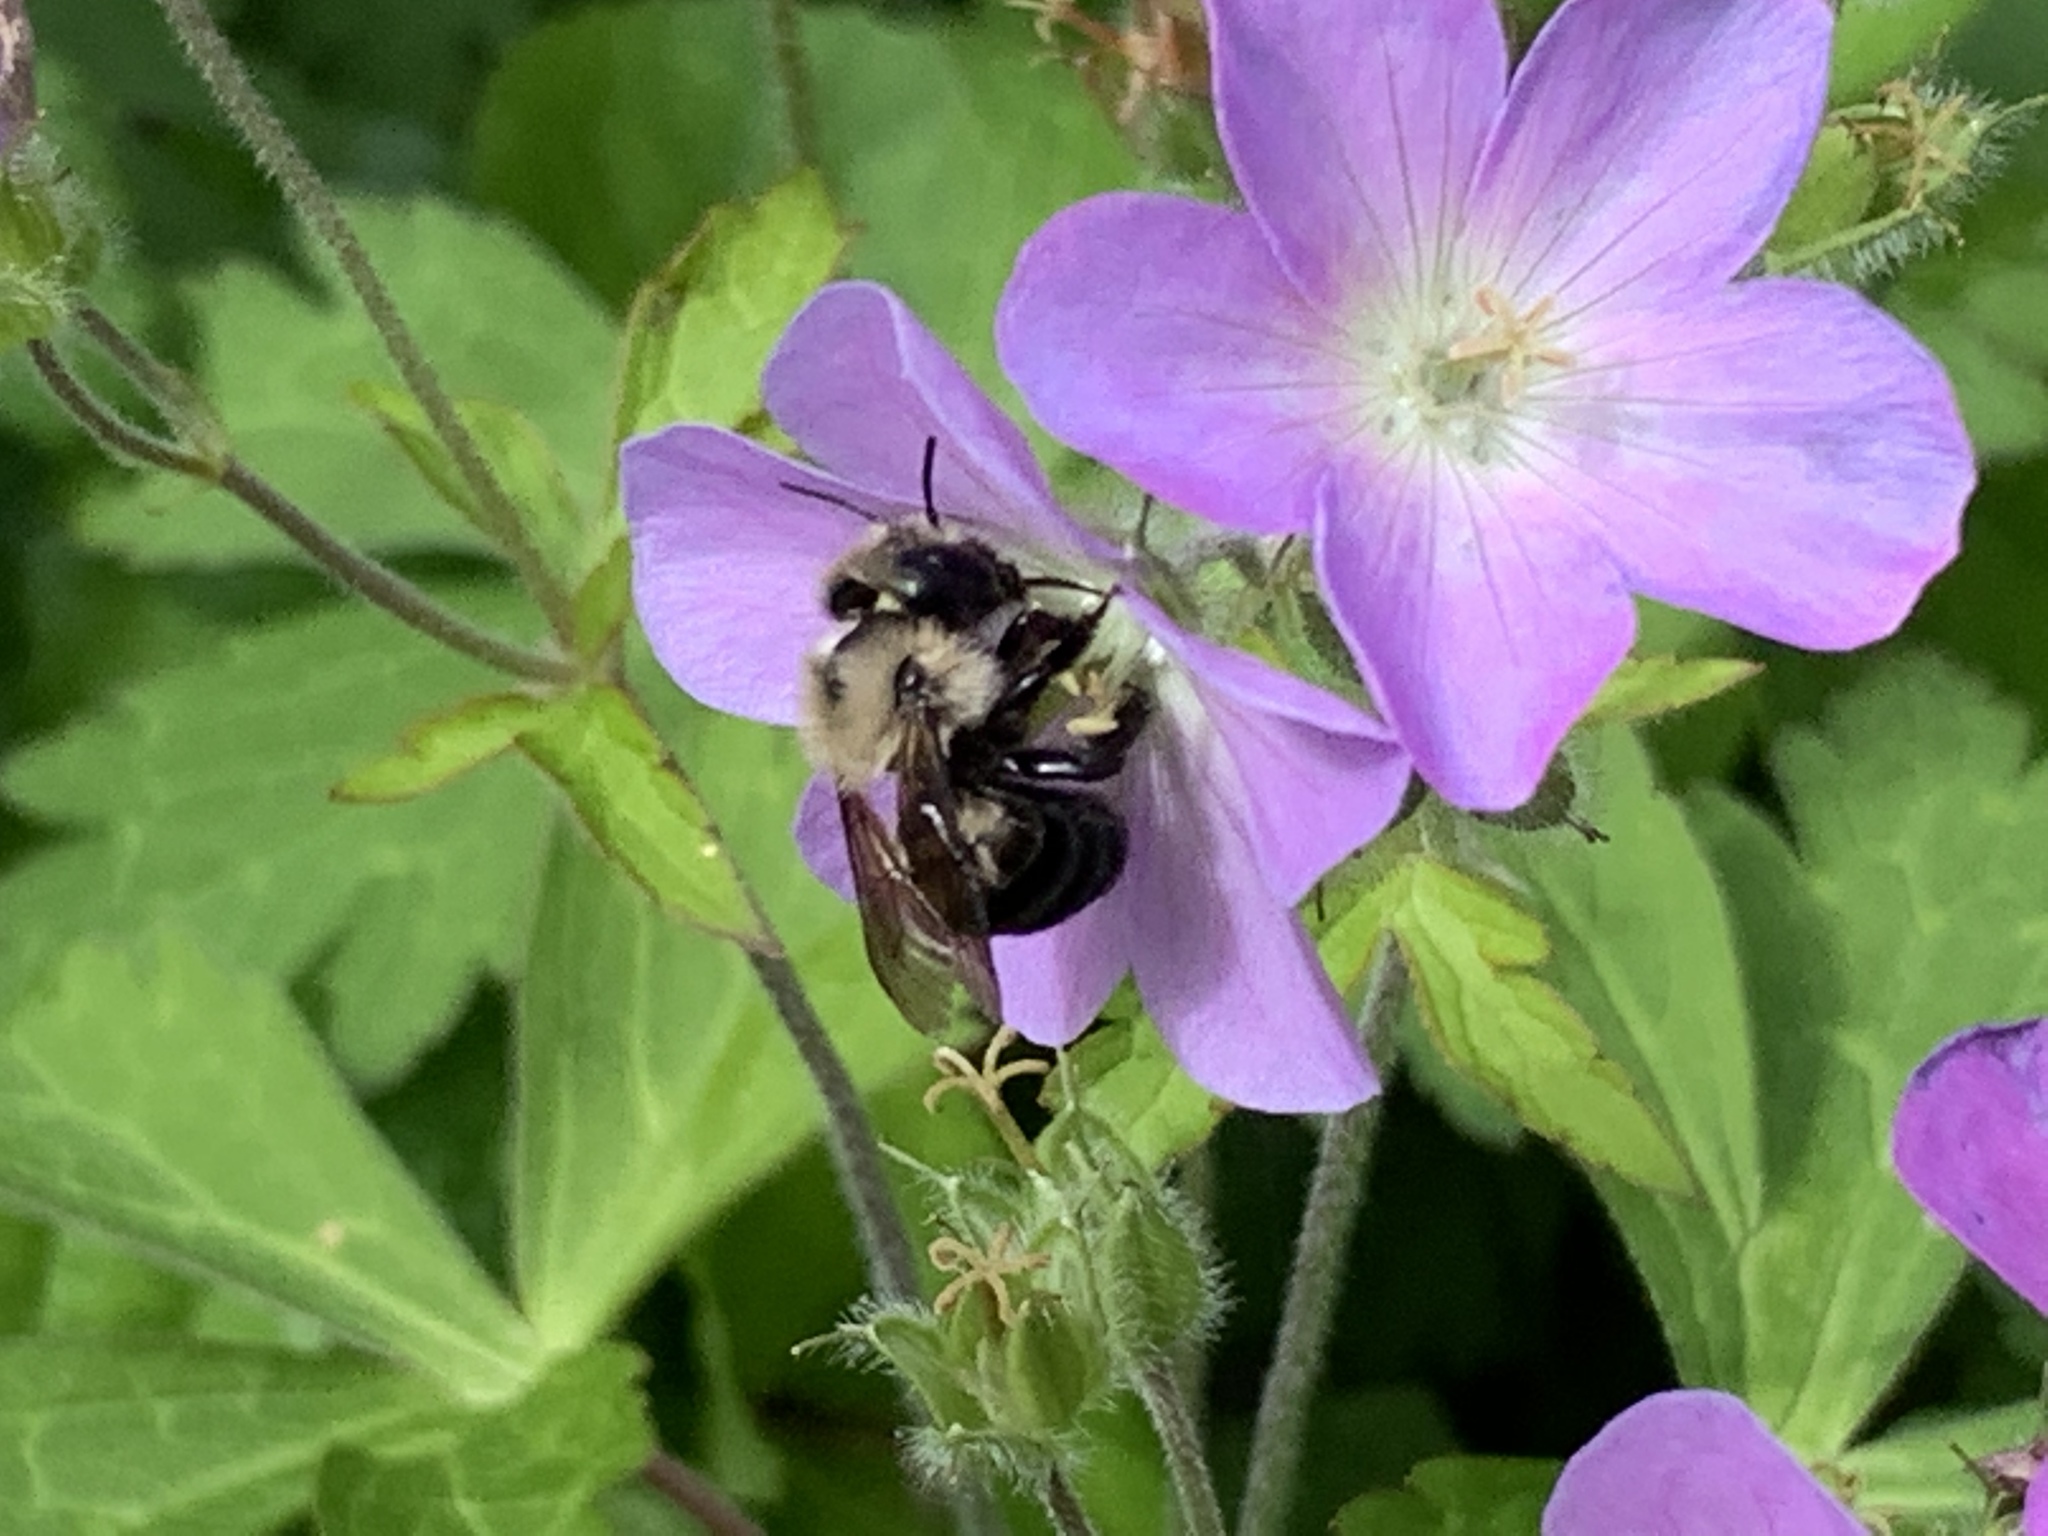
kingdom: Animalia
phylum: Arthropoda
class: Insecta
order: Hymenoptera
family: Megachilidae
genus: Osmia
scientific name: Osmia bucephala
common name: Bufflehead mason bee
